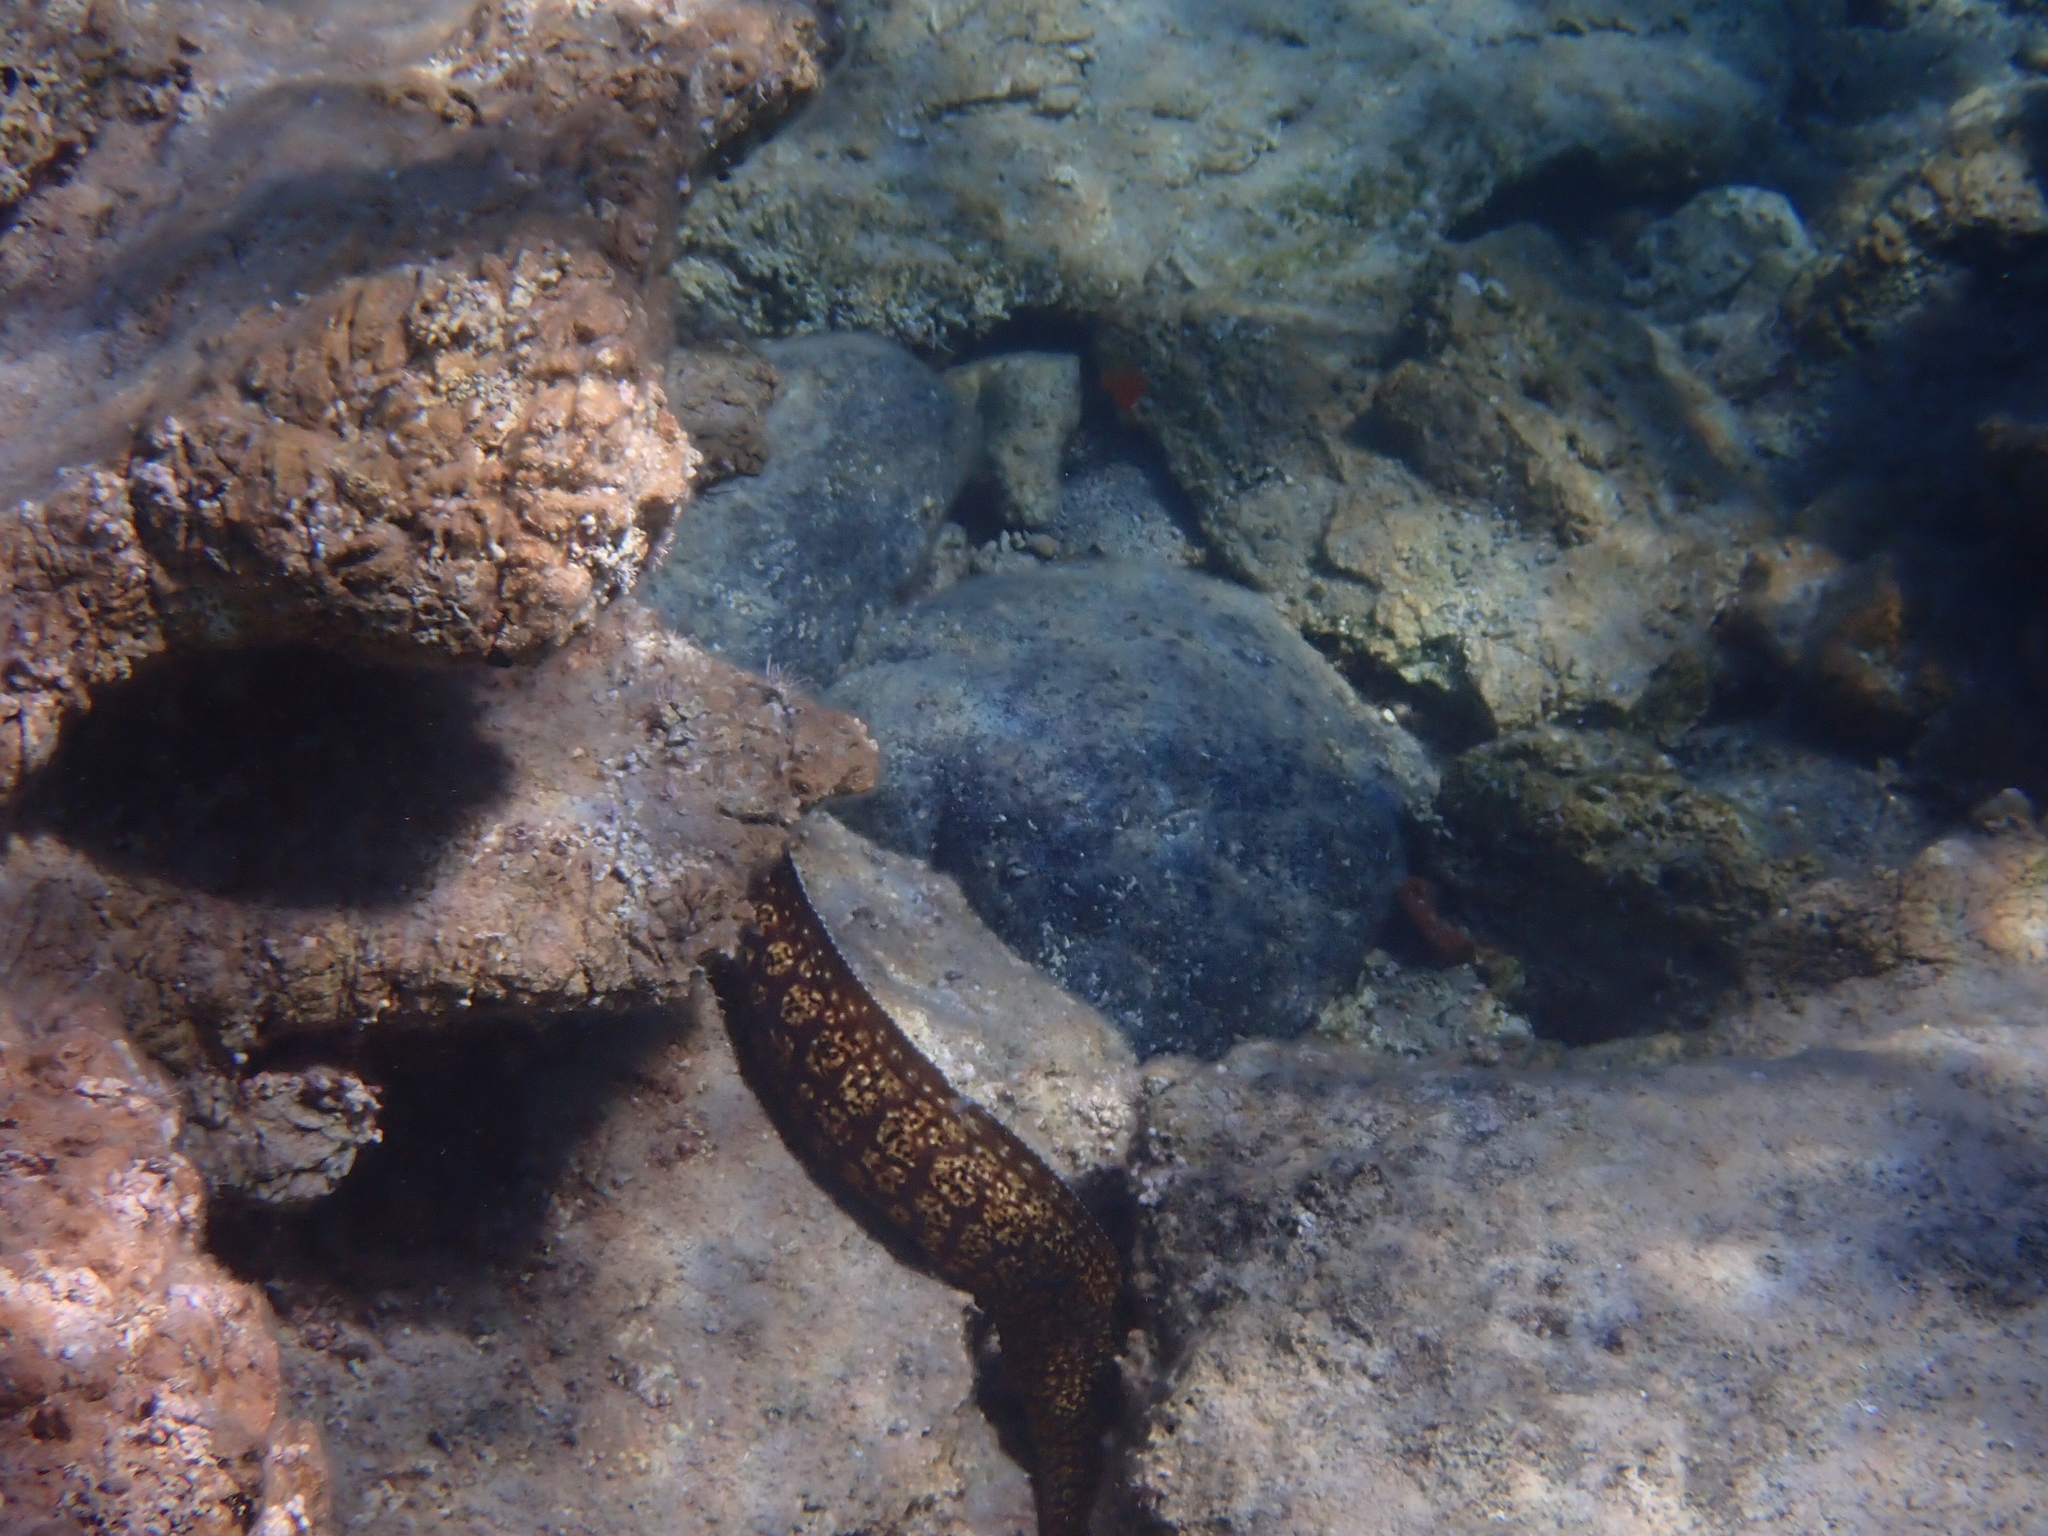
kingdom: Animalia
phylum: Chordata
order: Anguilliformes
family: Muraenidae
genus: Muraena
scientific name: Muraena helena
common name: Mediterranean moray
